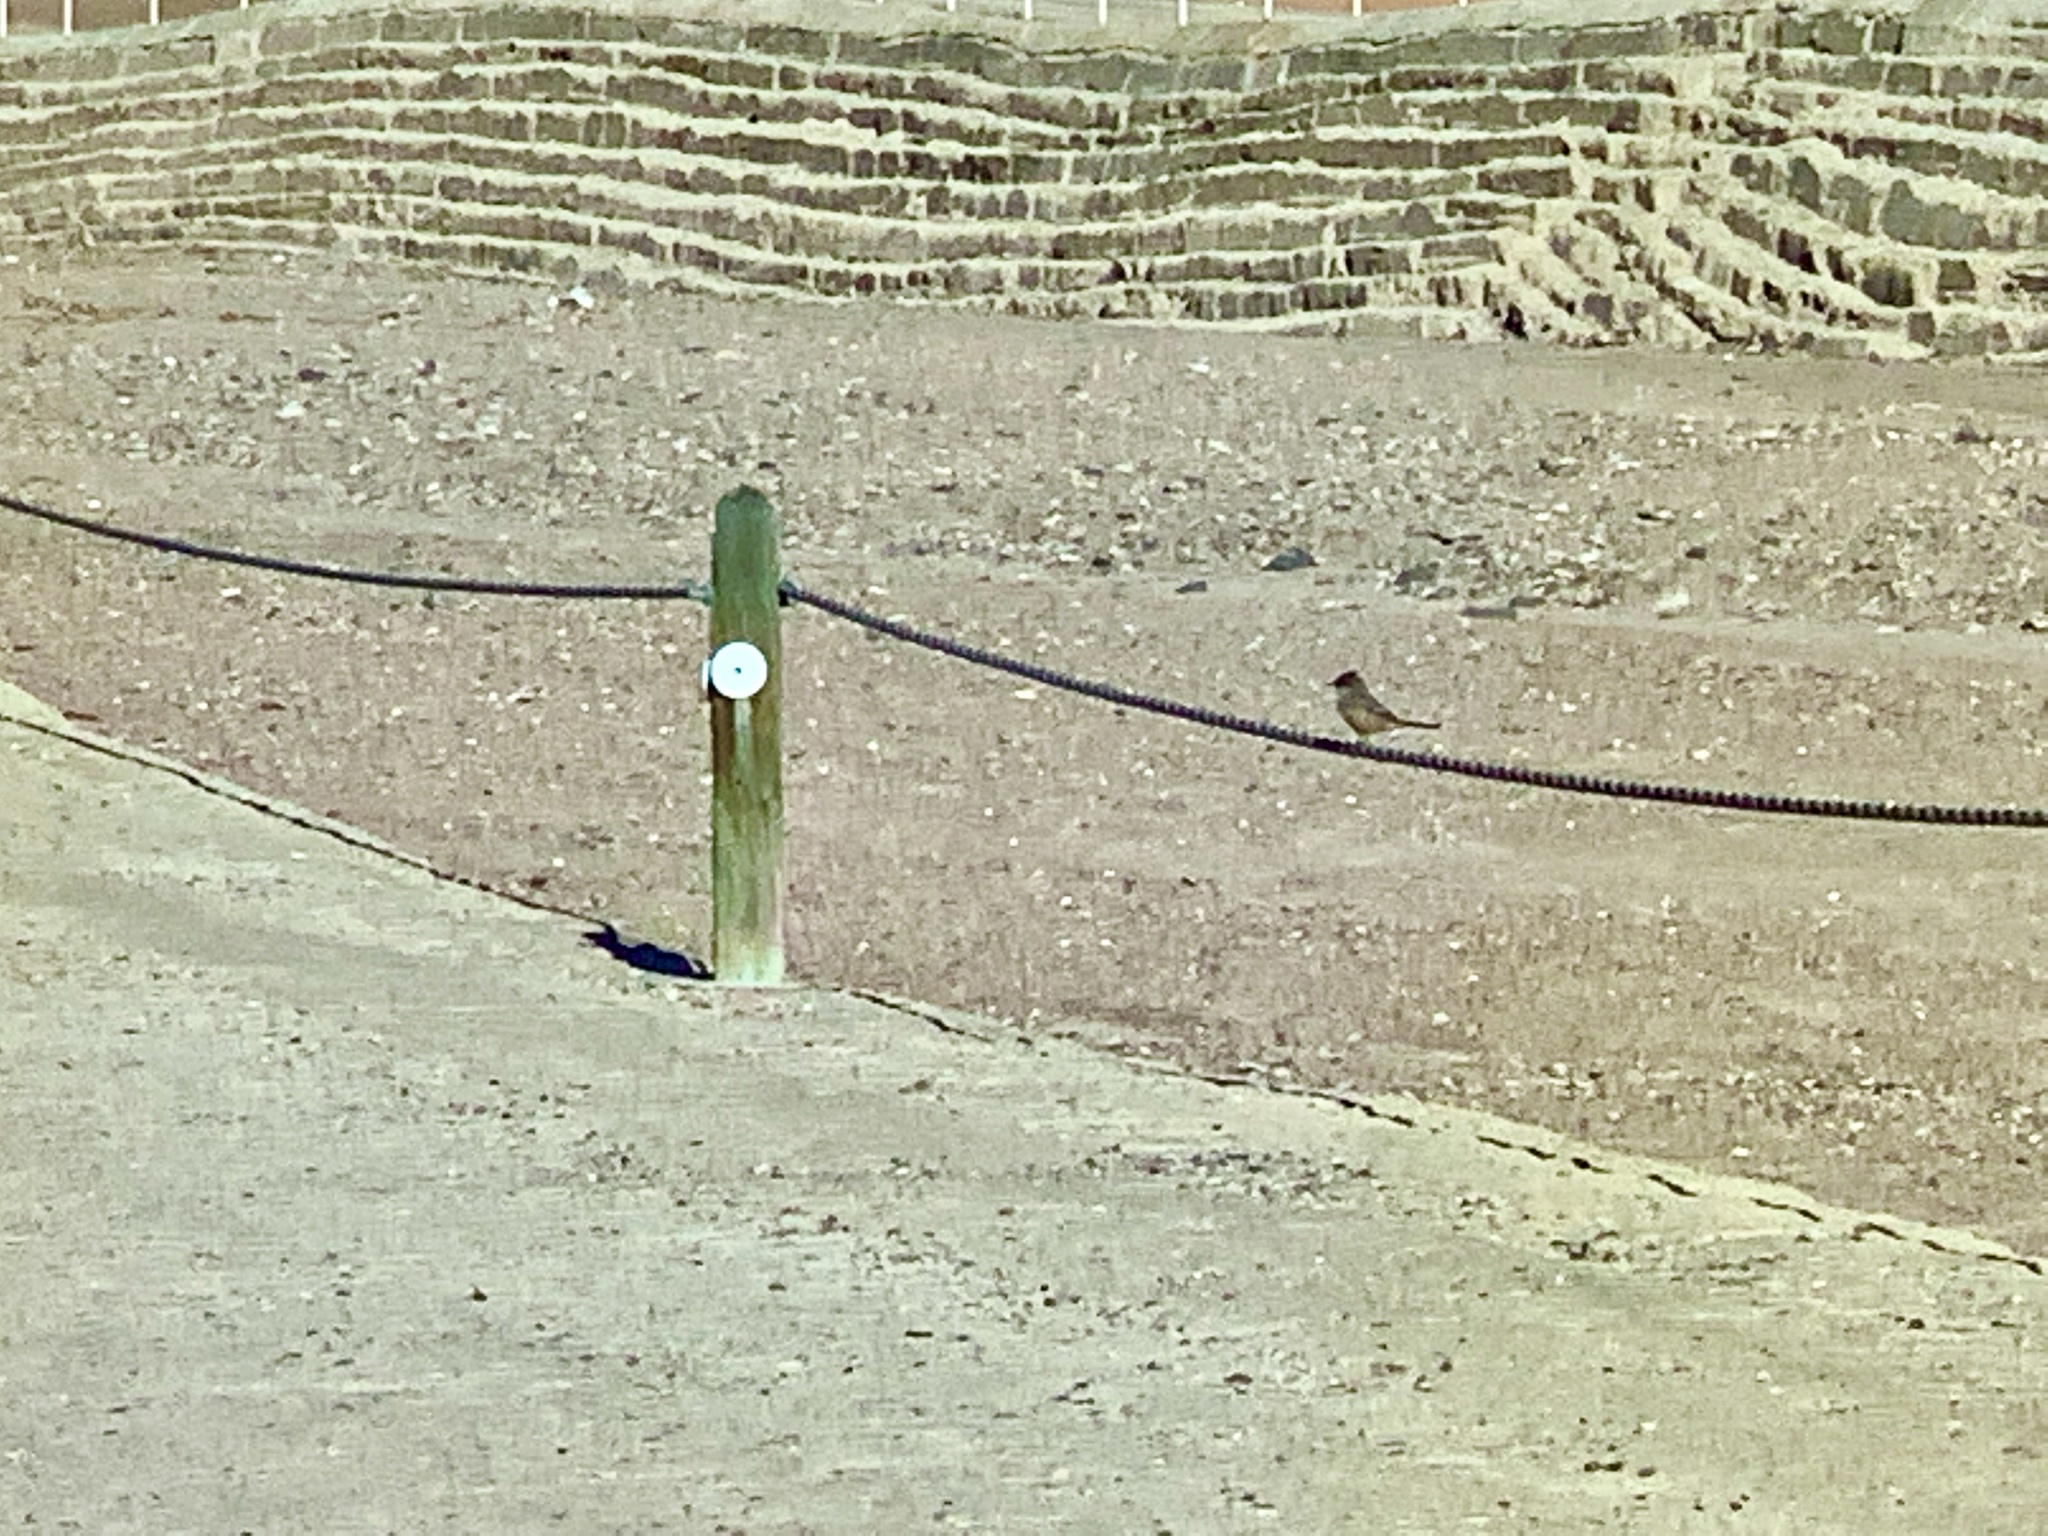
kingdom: Animalia
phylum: Chordata
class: Aves
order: Passeriformes
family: Tyrannidae
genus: Sayornis
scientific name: Sayornis saya
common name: Say's phoebe
